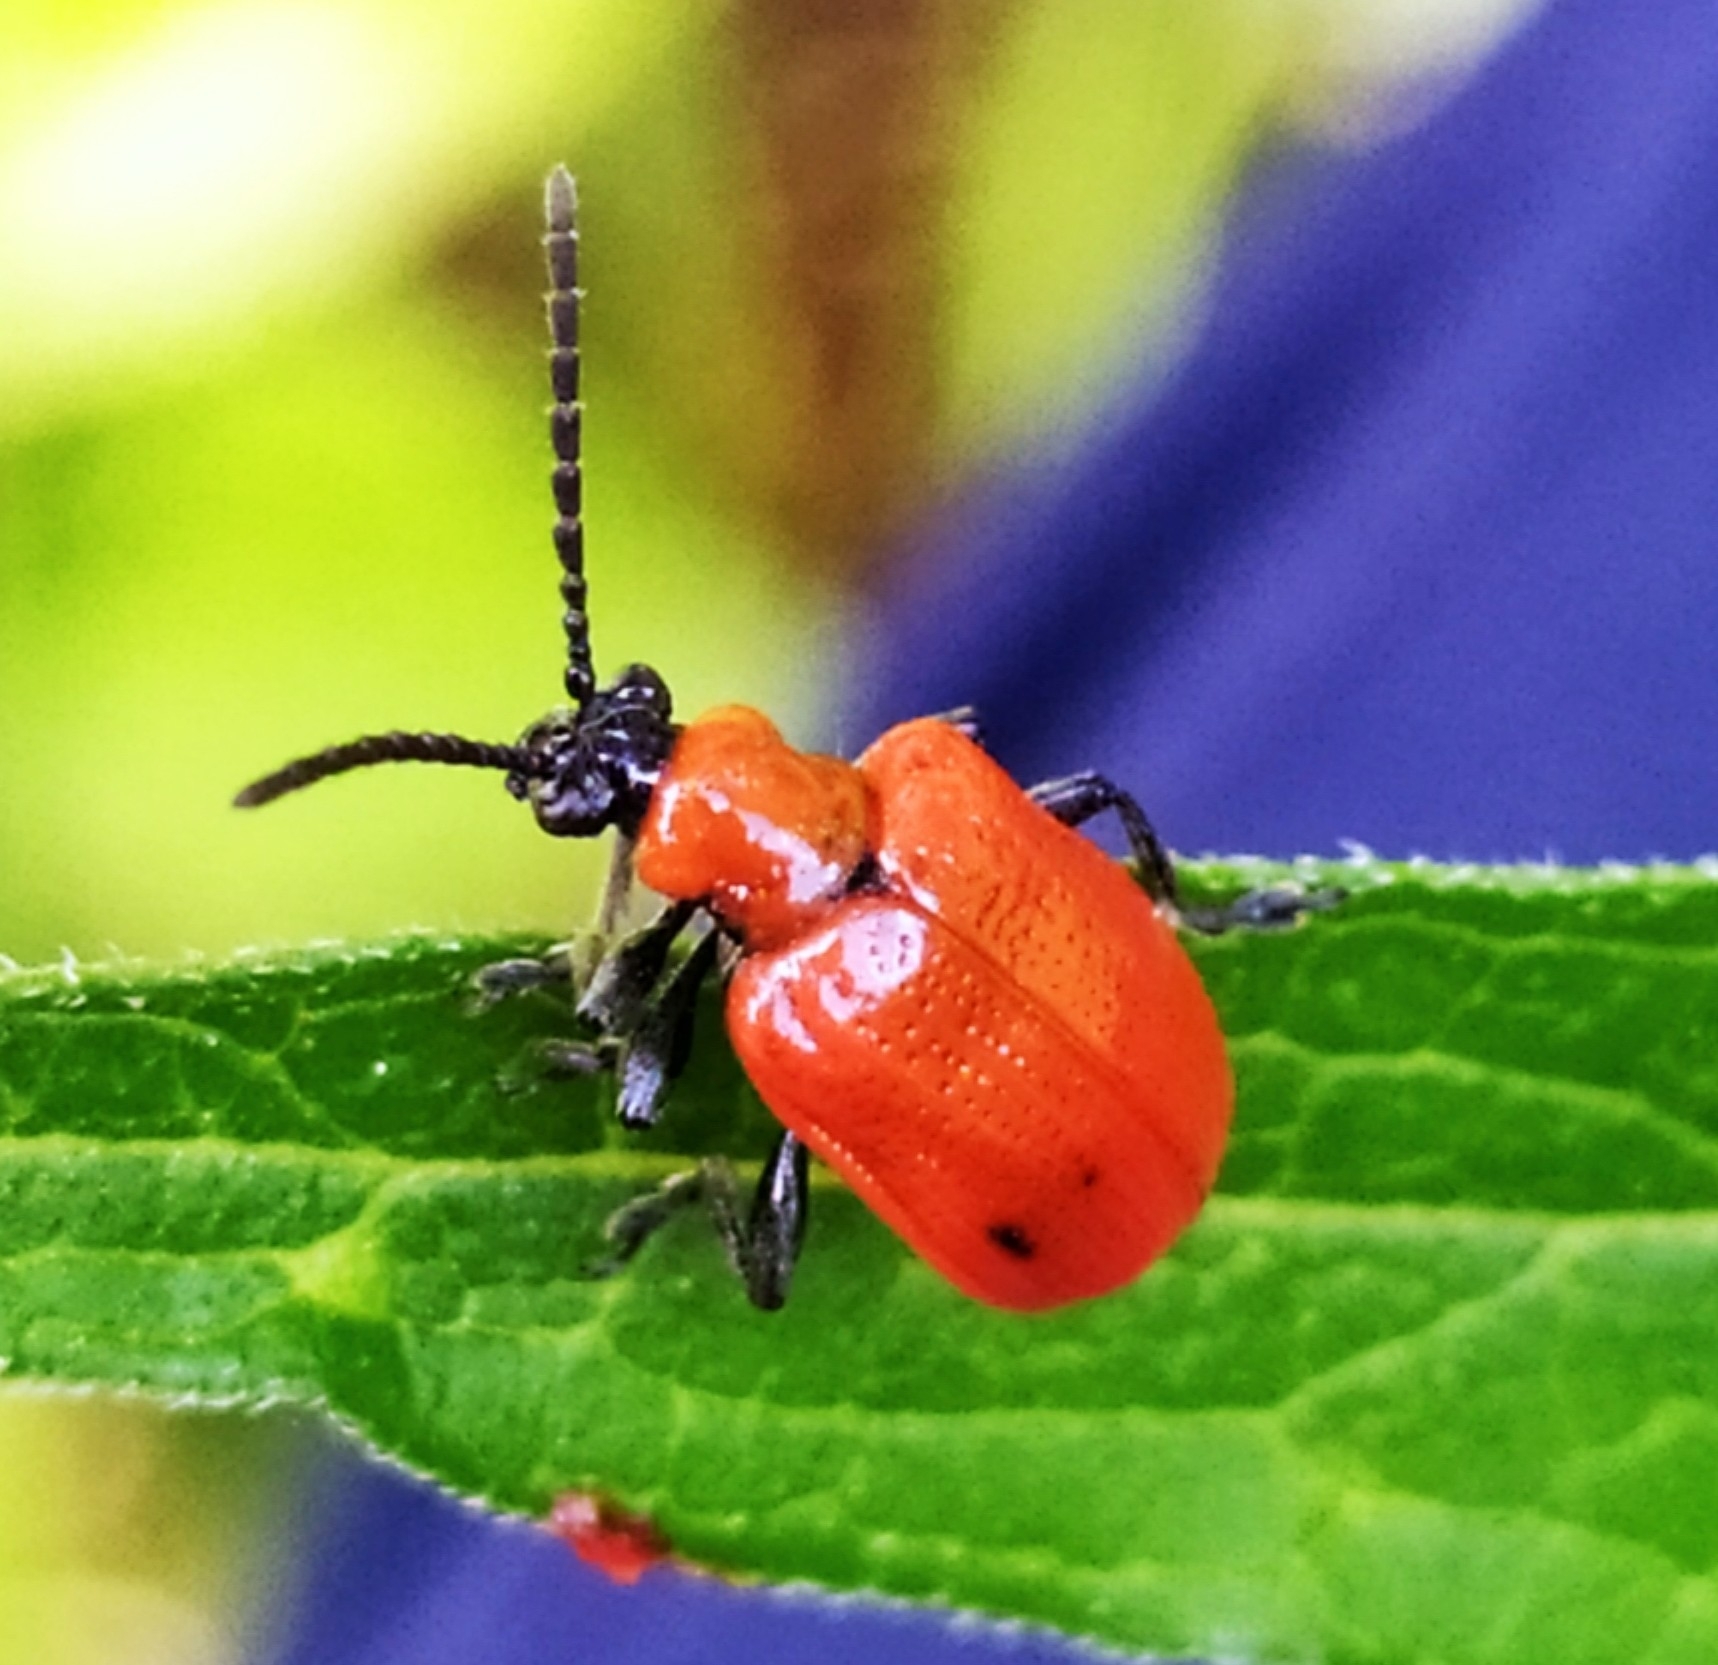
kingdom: Animalia
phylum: Arthropoda
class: Insecta
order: Coleoptera
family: Chrysomelidae
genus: Lilioceris
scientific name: Lilioceris lilii
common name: Lily beetle
